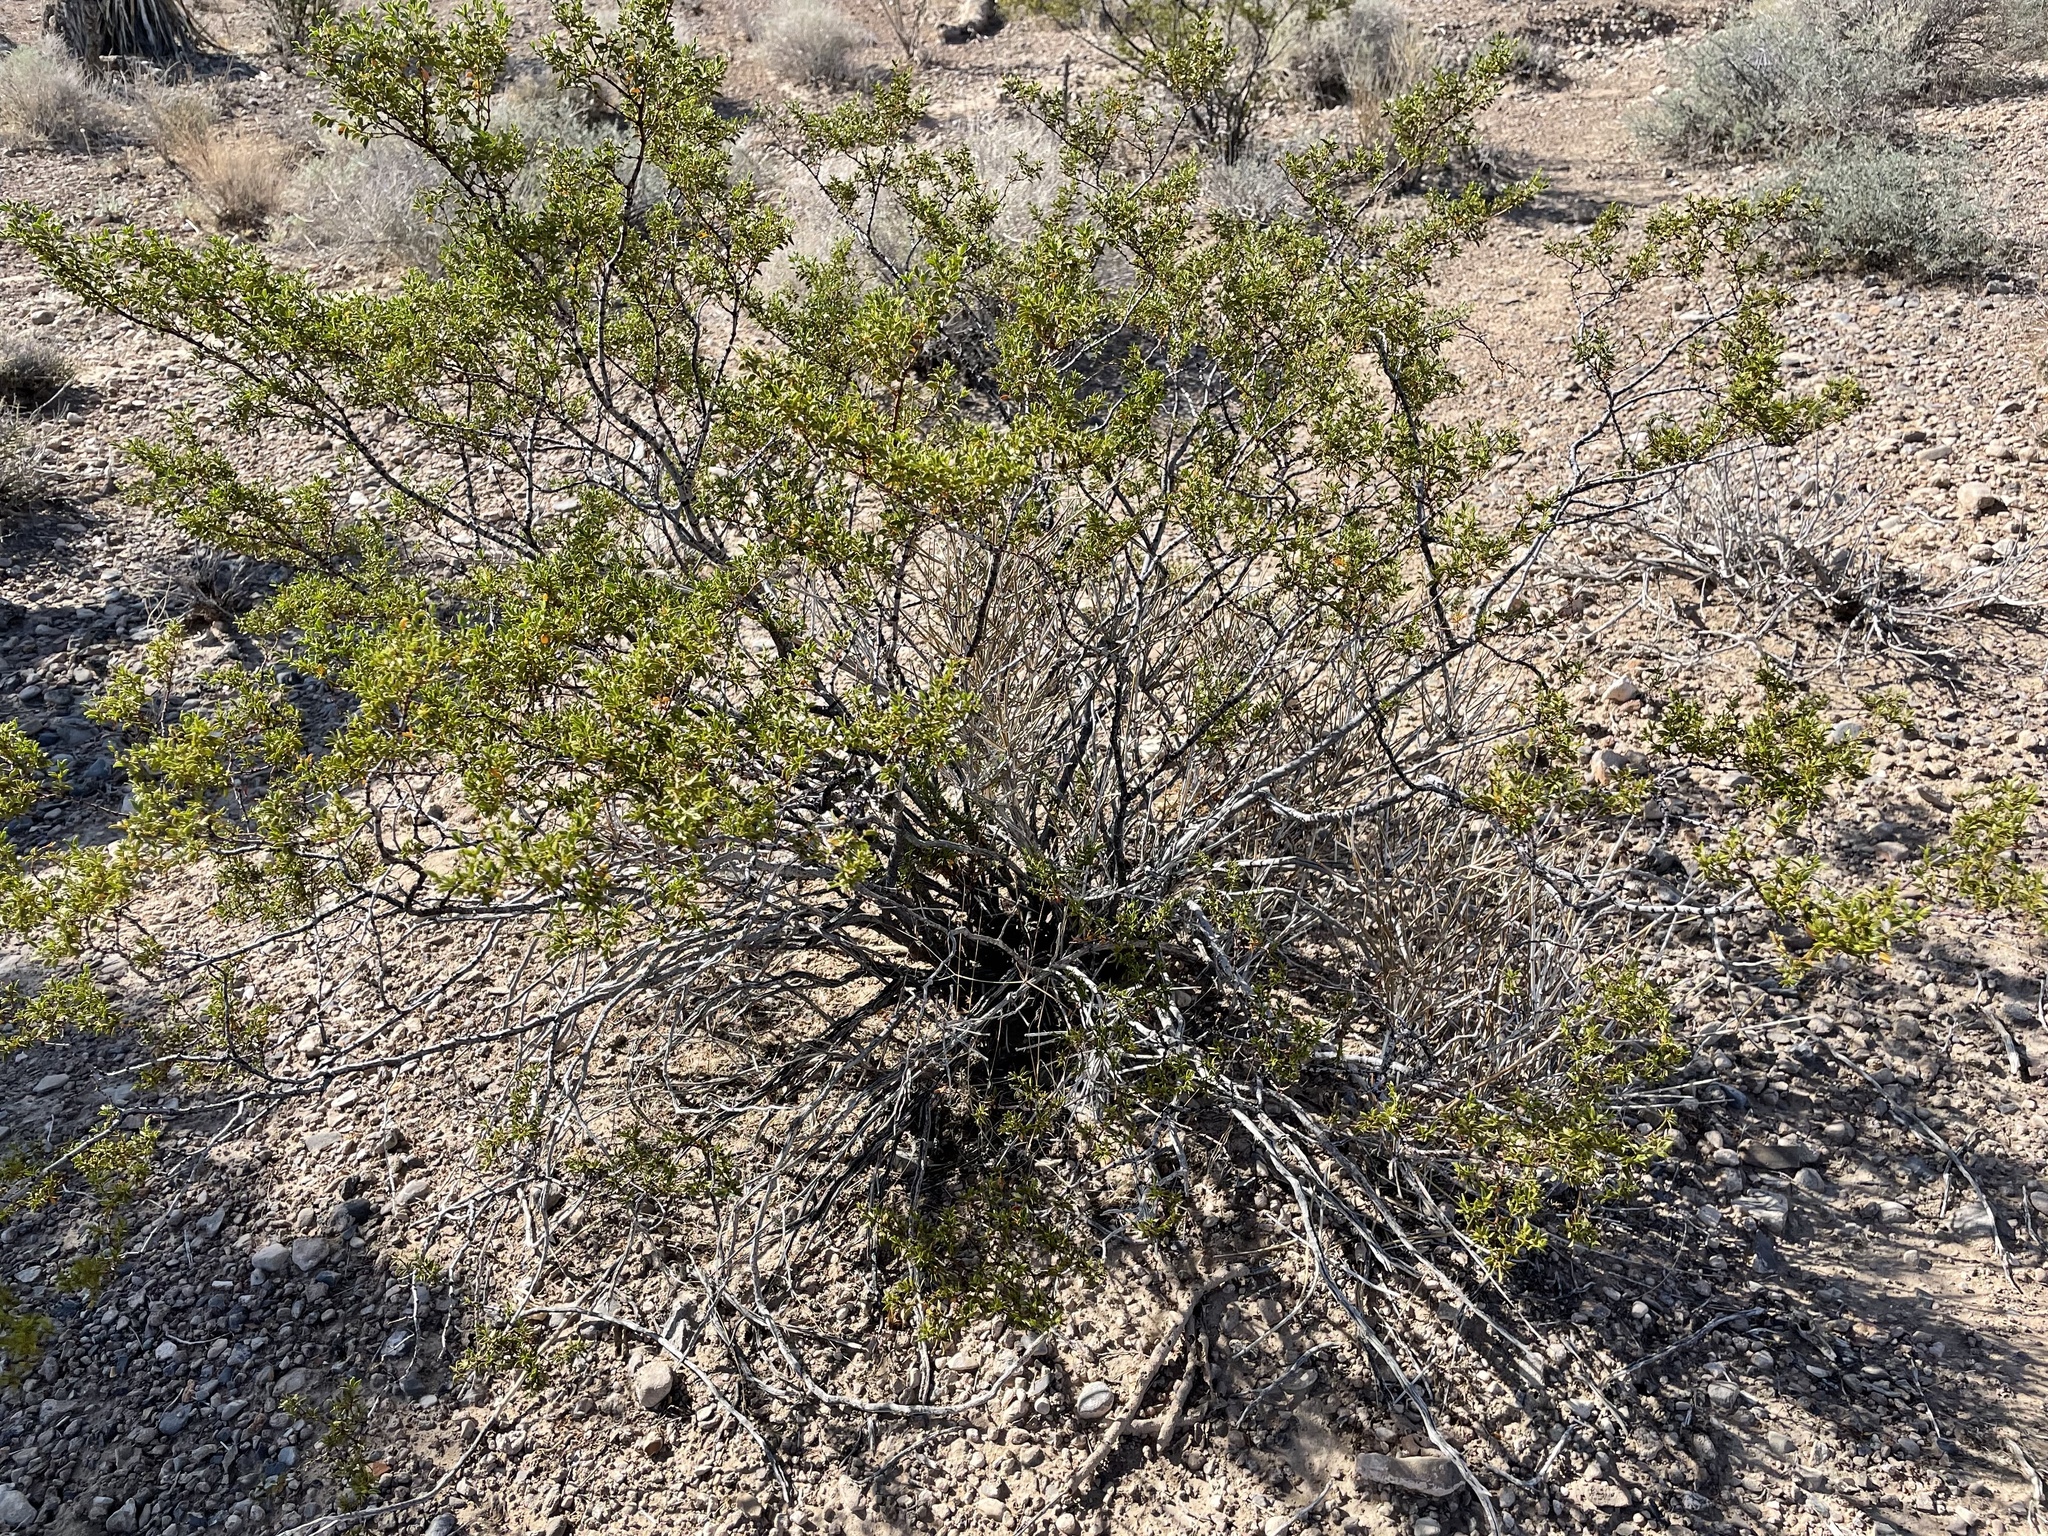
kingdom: Plantae
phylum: Tracheophyta
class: Magnoliopsida
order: Zygophyllales
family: Zygophyllaceae
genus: Larrea
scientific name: Larrea tridentata
